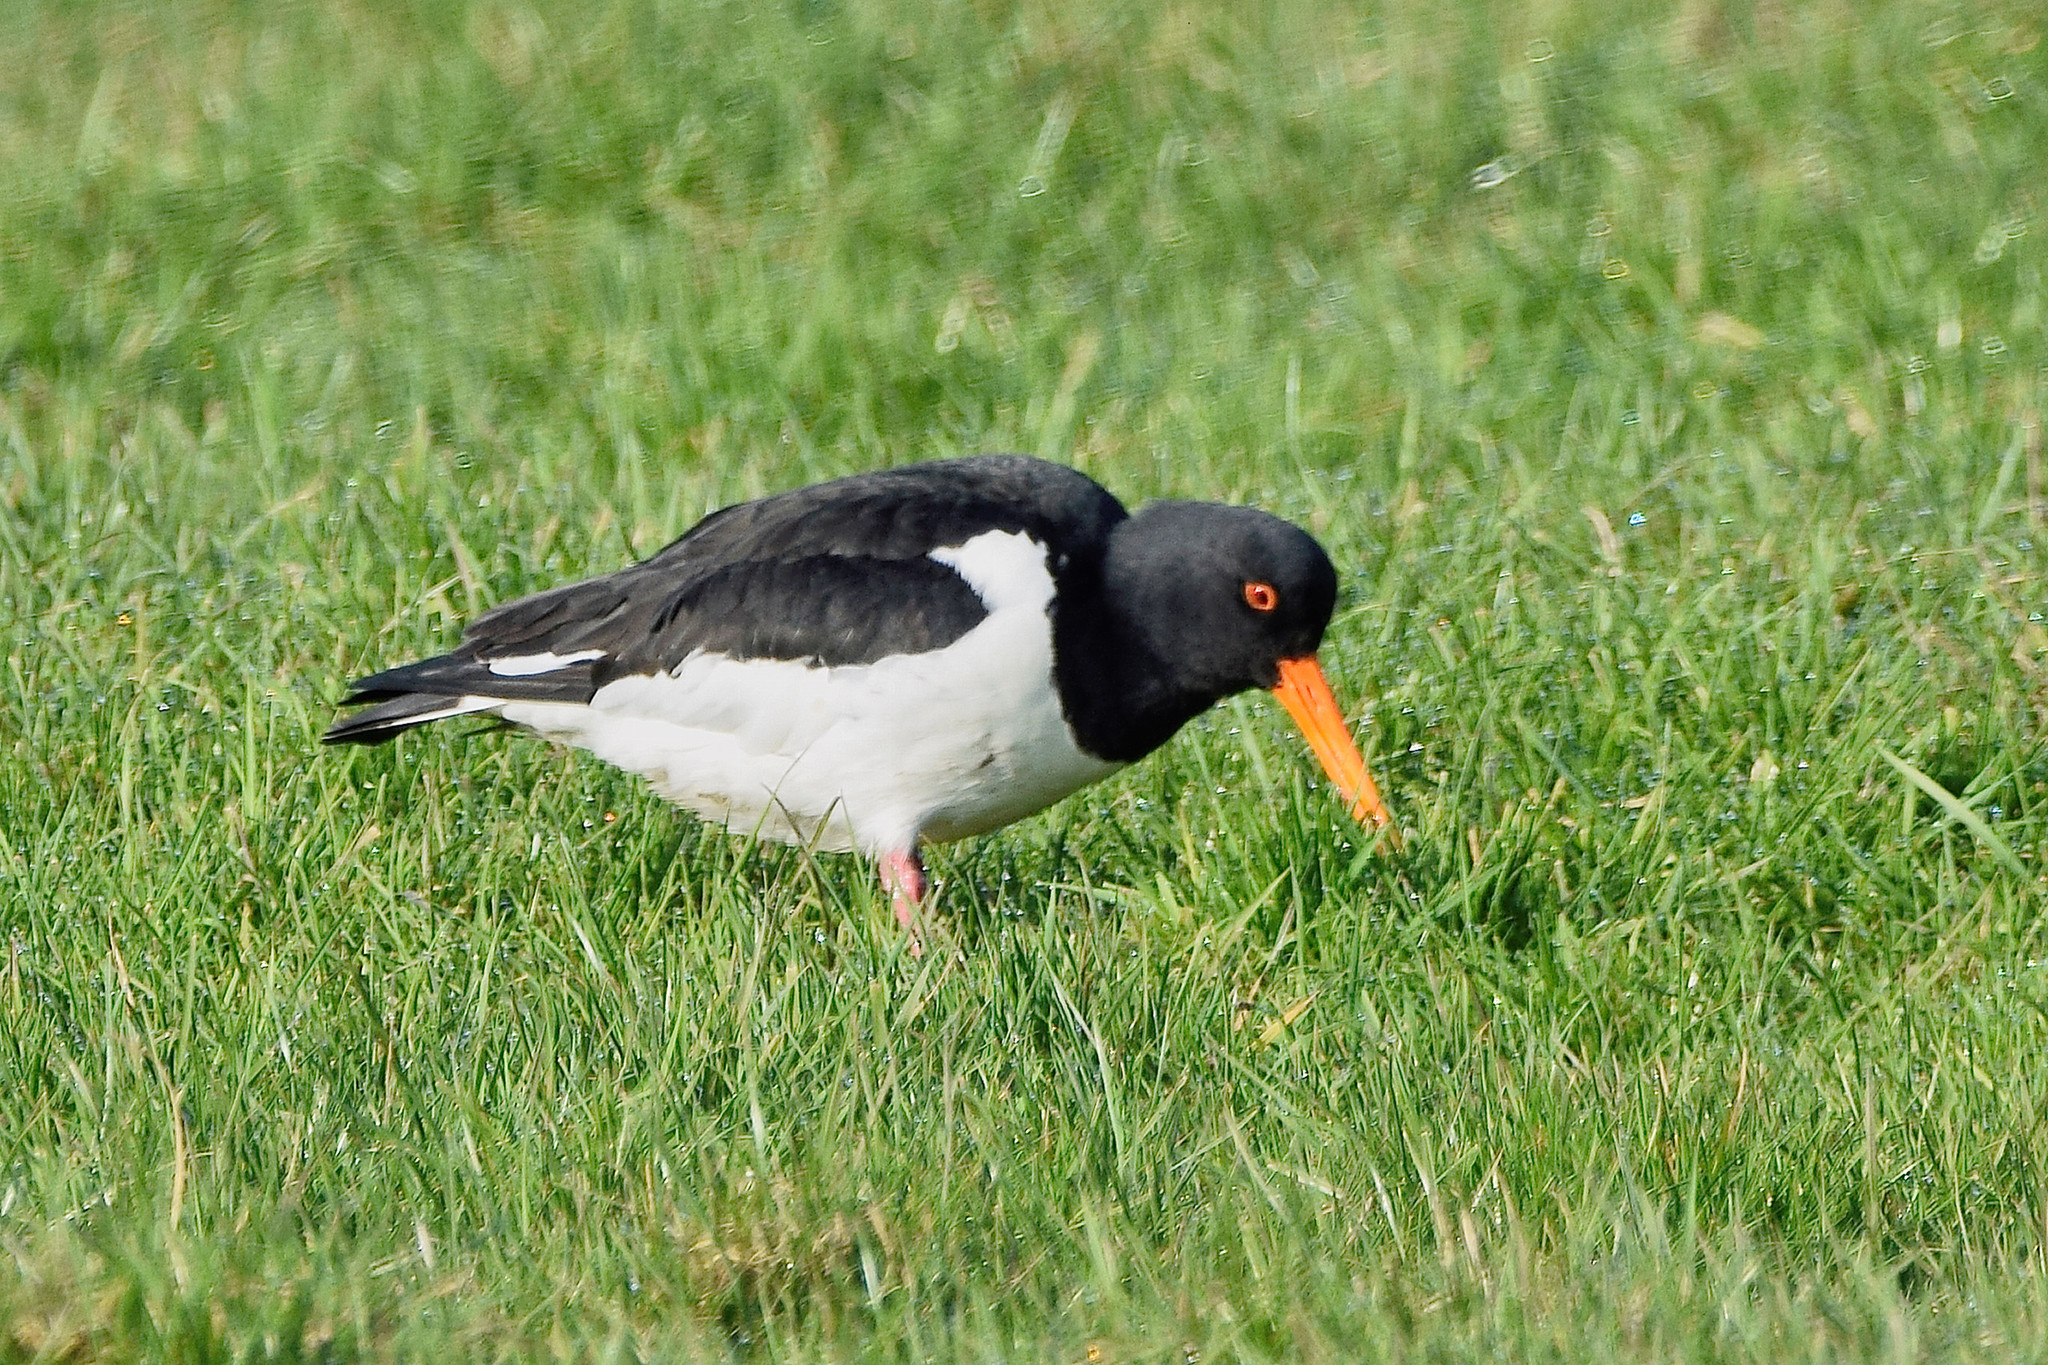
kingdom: Animalia
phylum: Chordata
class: Aves
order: Charadriiformes
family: Haematopodidae
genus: Haematopus
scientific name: Haematopus ostralegus
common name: Eurasian oystercatcher
